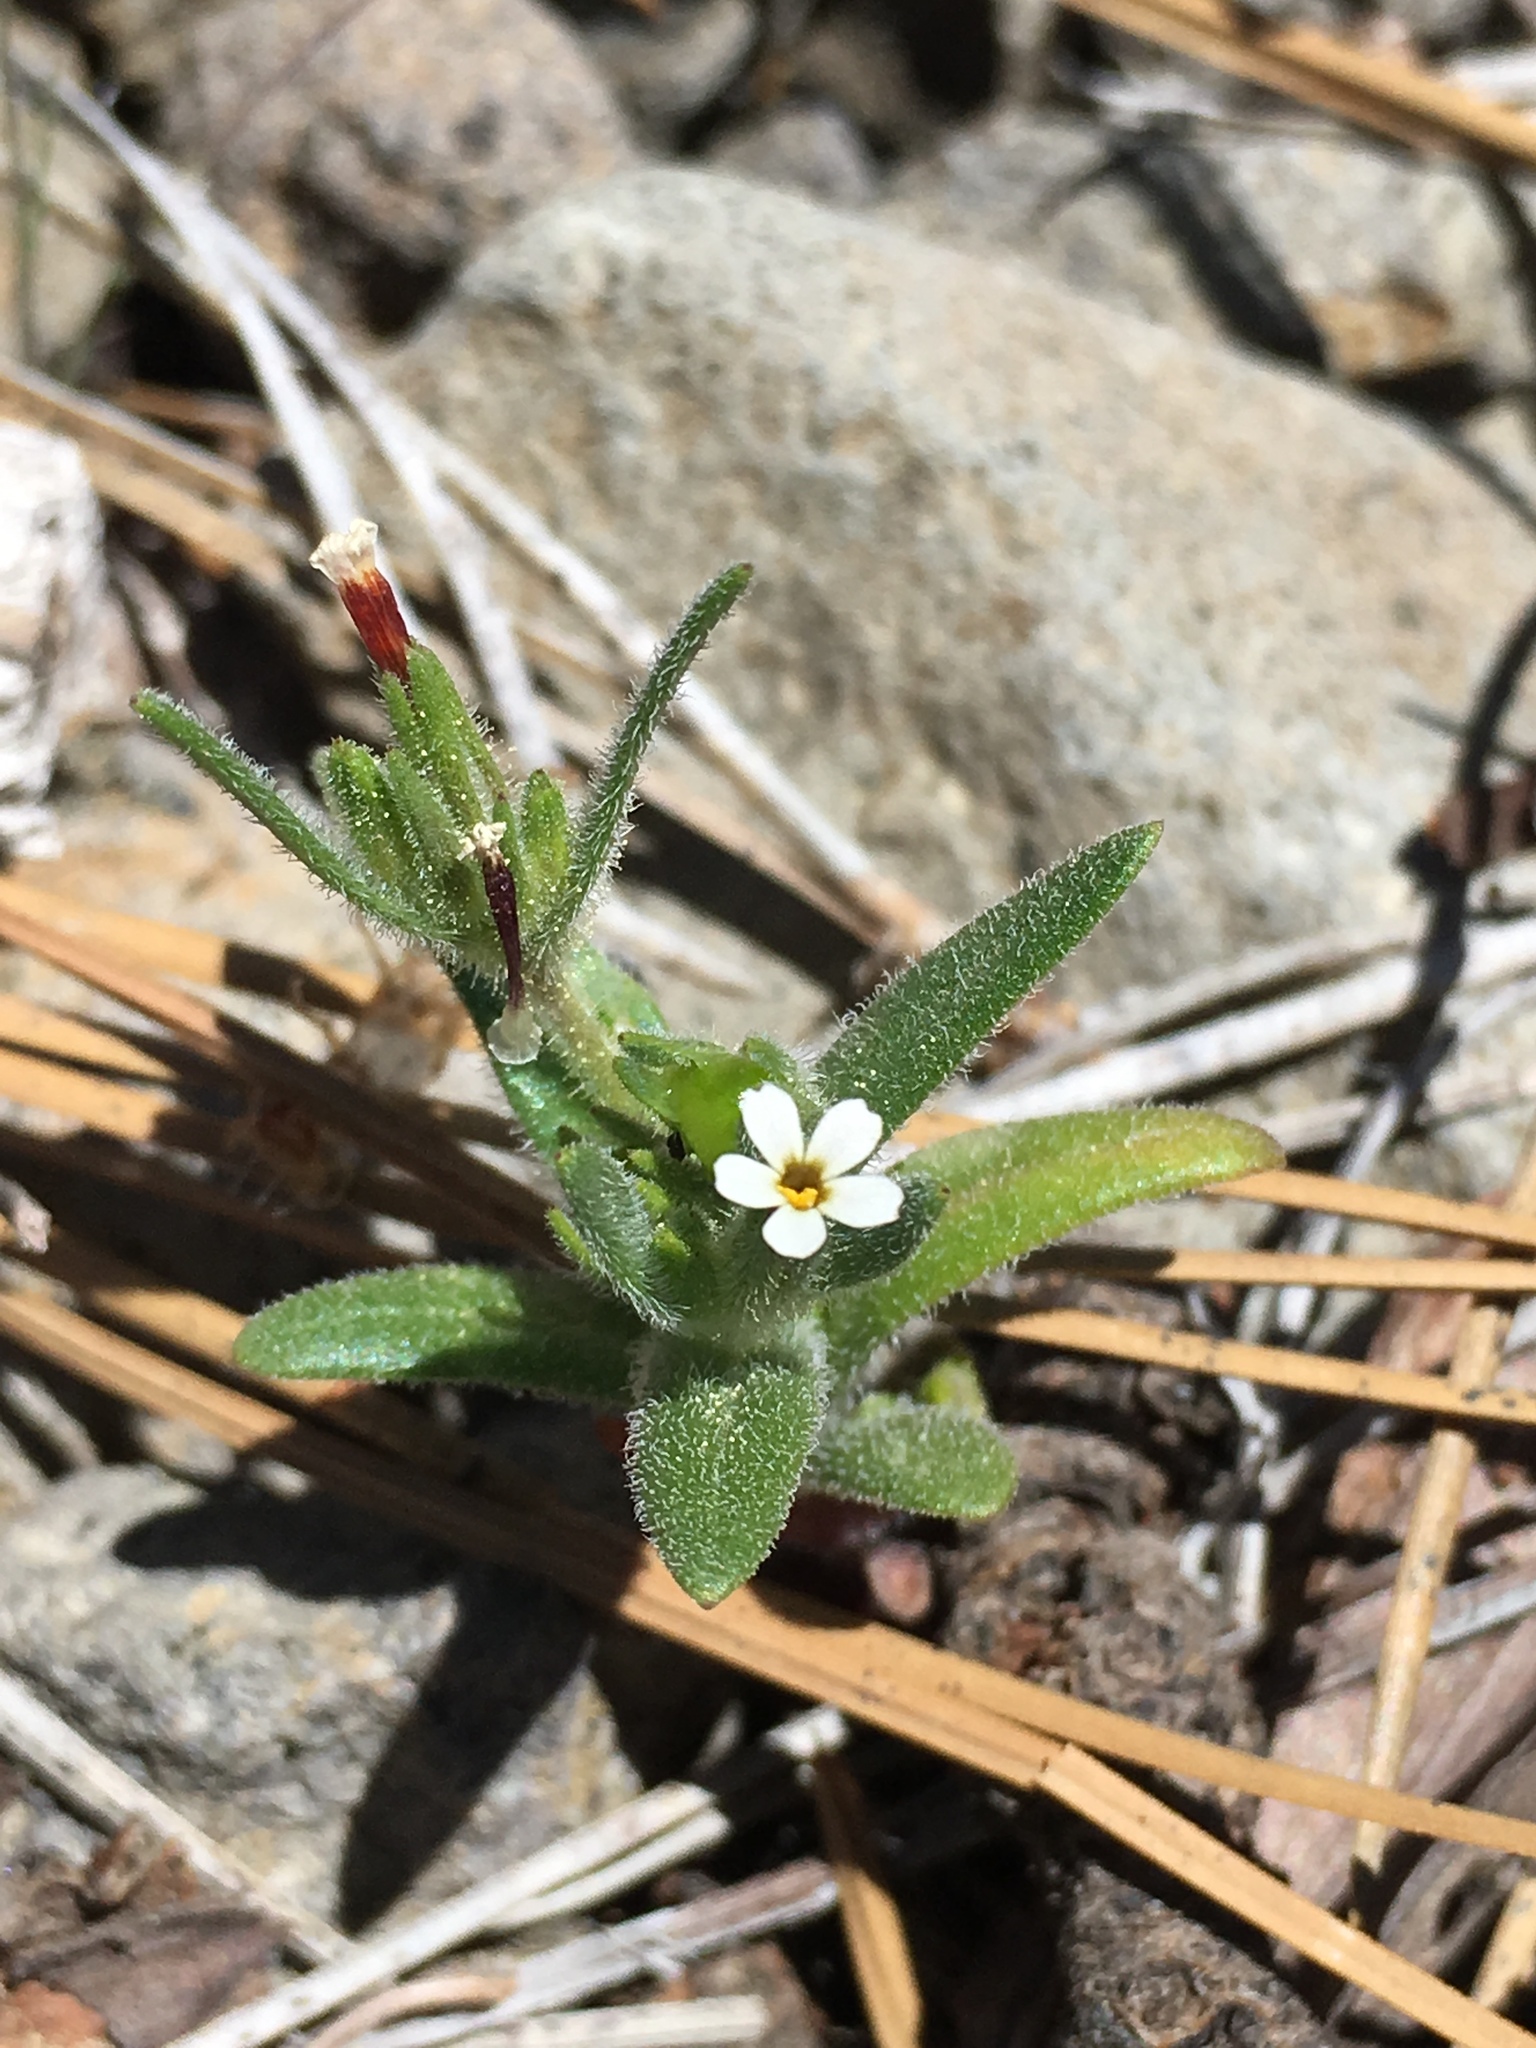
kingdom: Plantae
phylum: Tracheophyta
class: Magnoliopsida
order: Ericales
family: Polemoniaceae
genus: Phlox
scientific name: Phlox gracilis
